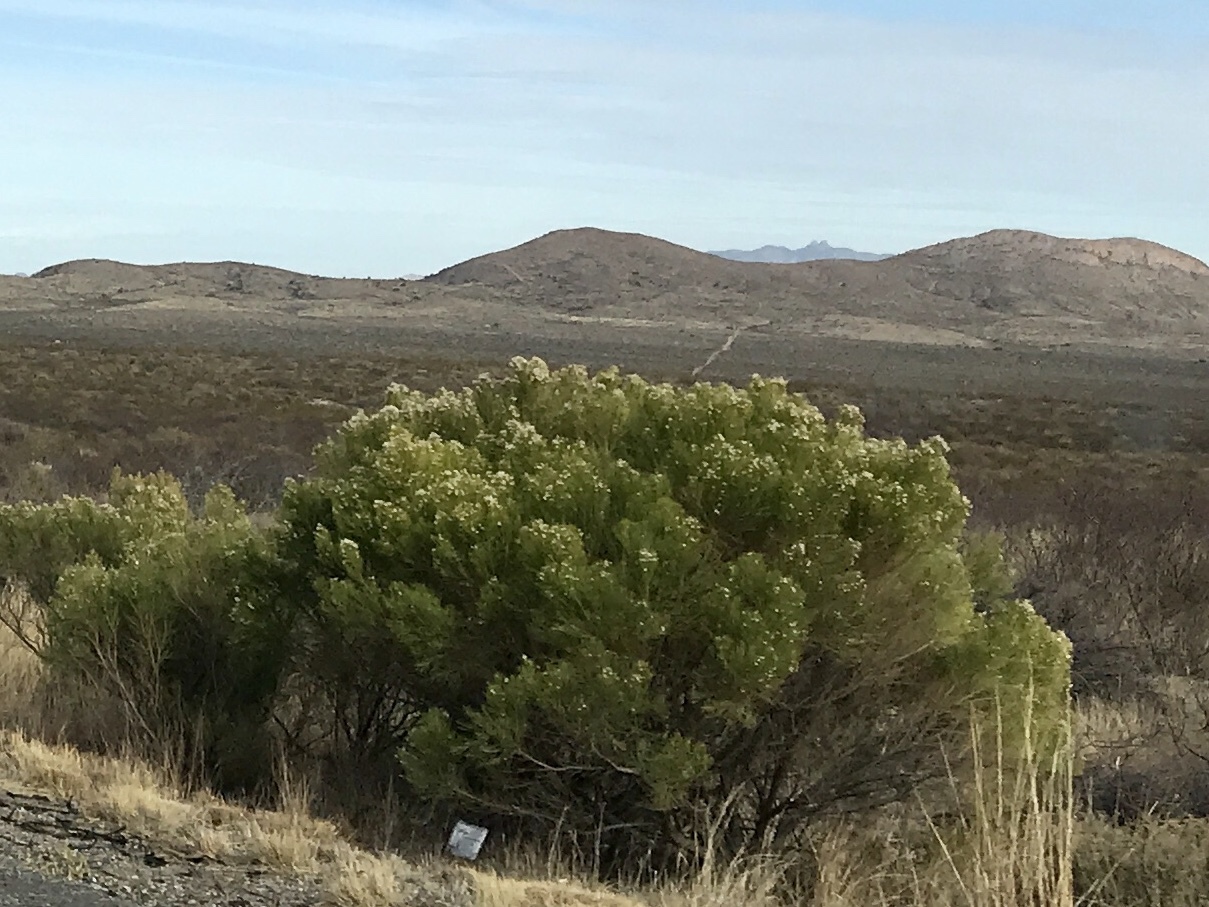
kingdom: Plantae
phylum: Tracheophyta
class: Magnoliopsida
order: Asterales
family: Asteraceae
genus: Baccharis
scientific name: Baccharis sarothroides
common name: Desert-broom
